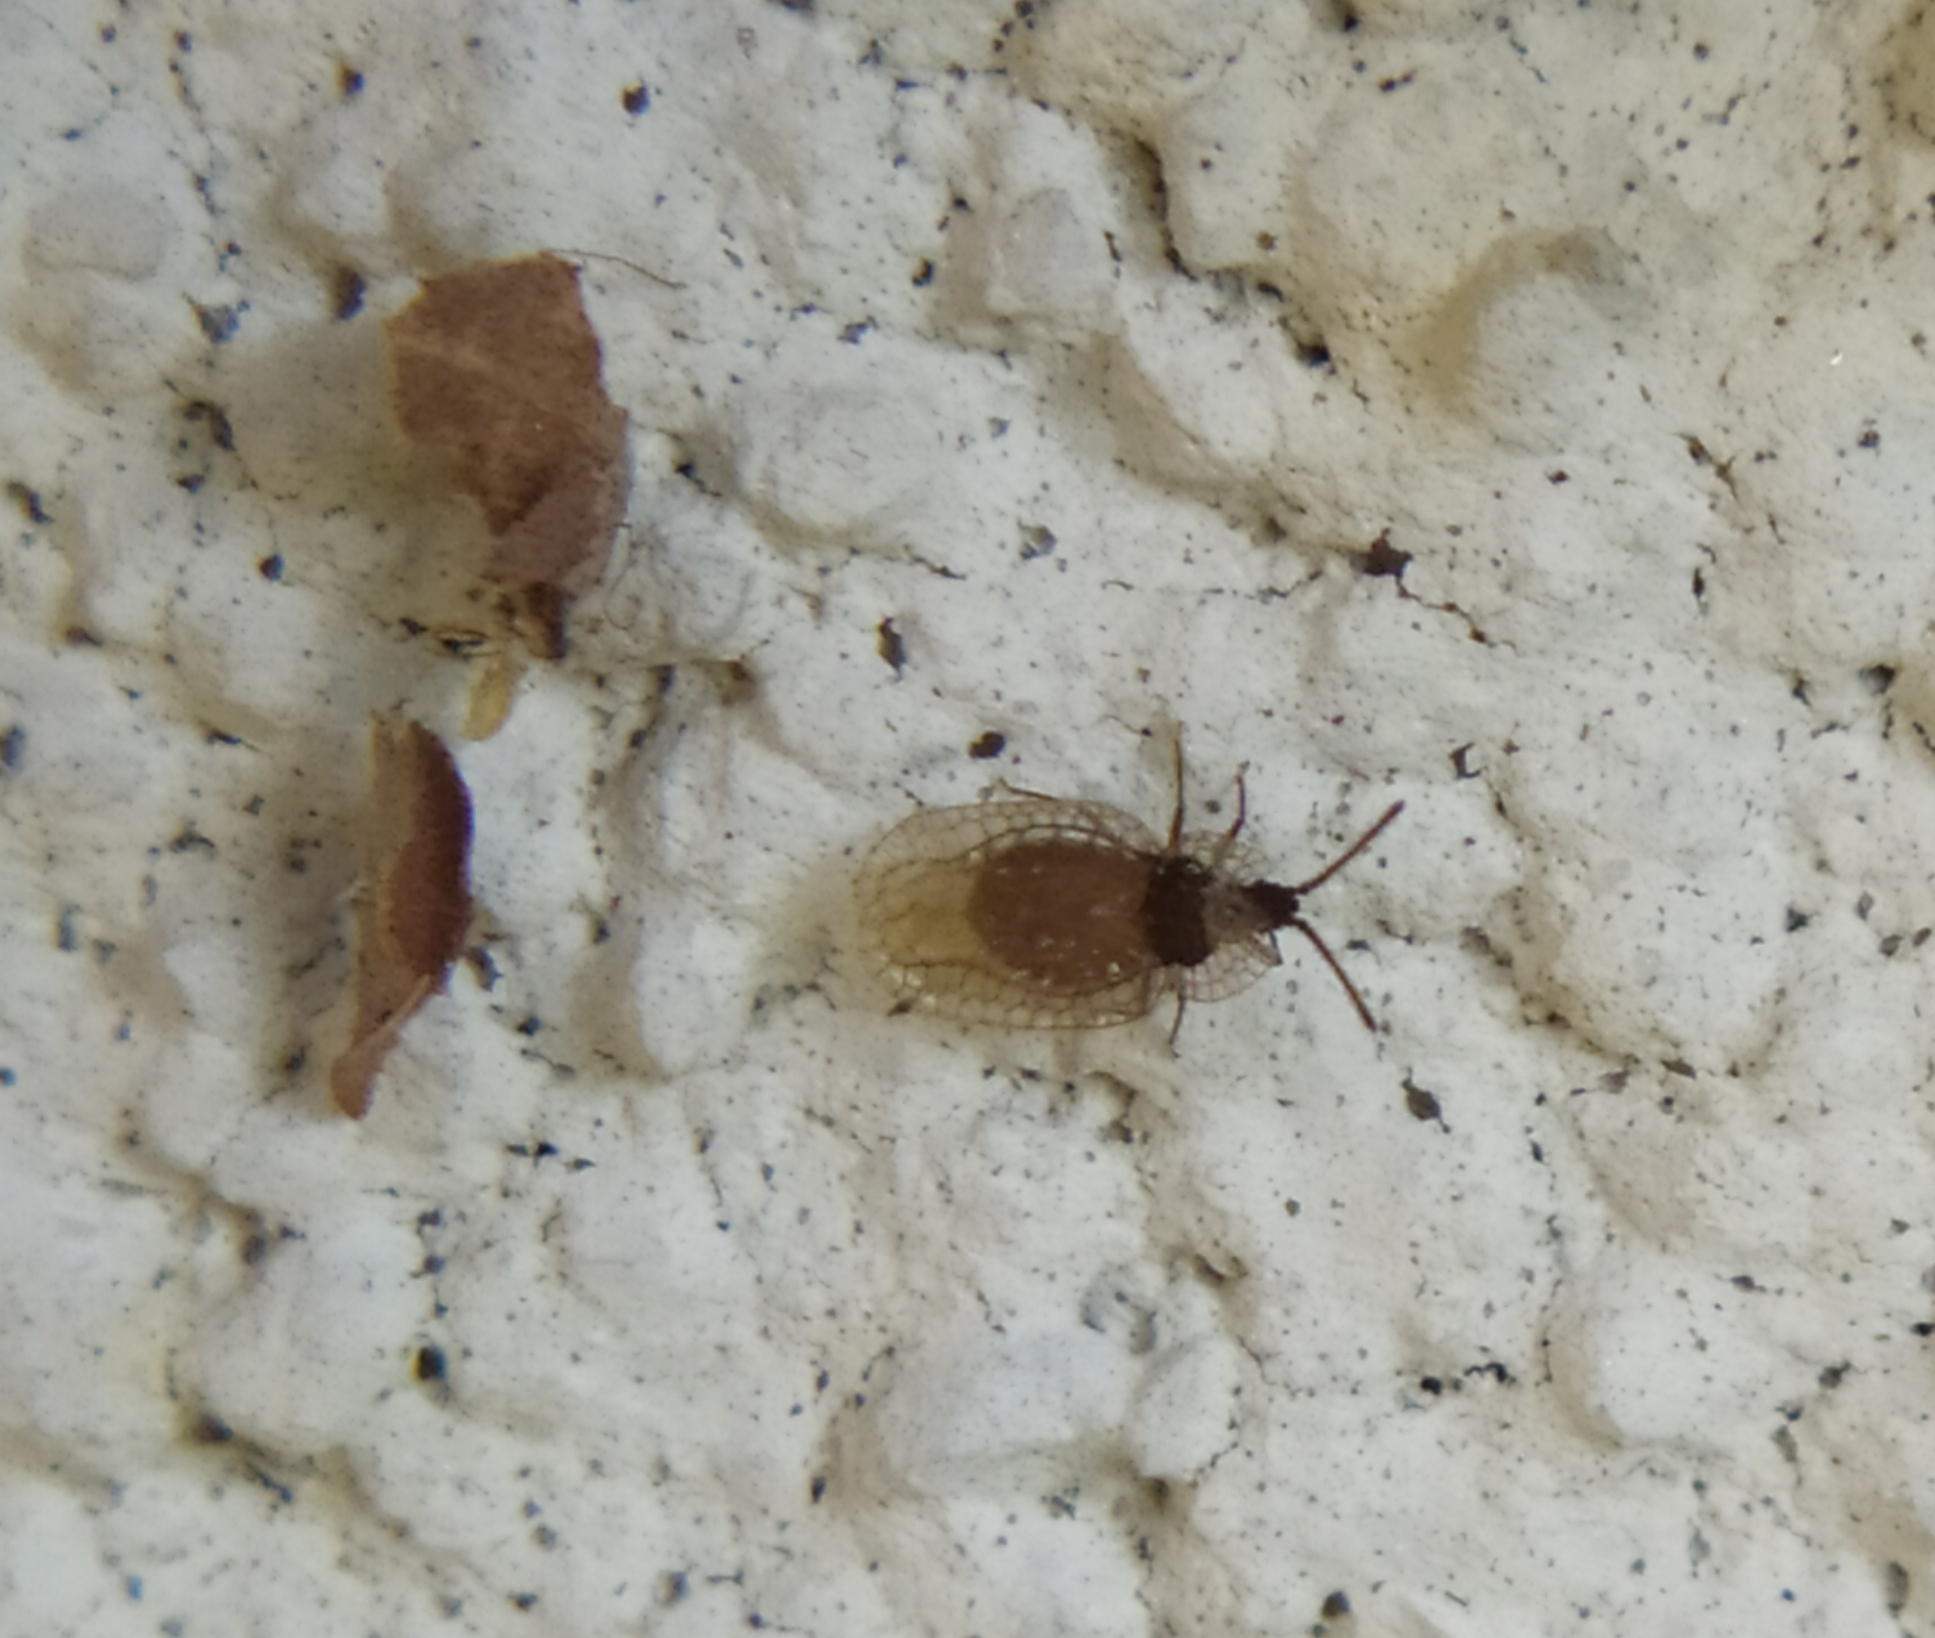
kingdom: Animalia
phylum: Arthropoda
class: Insecta
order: Hemiptera
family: Tingidae
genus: Derephysia
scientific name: Derephysia foliacea
